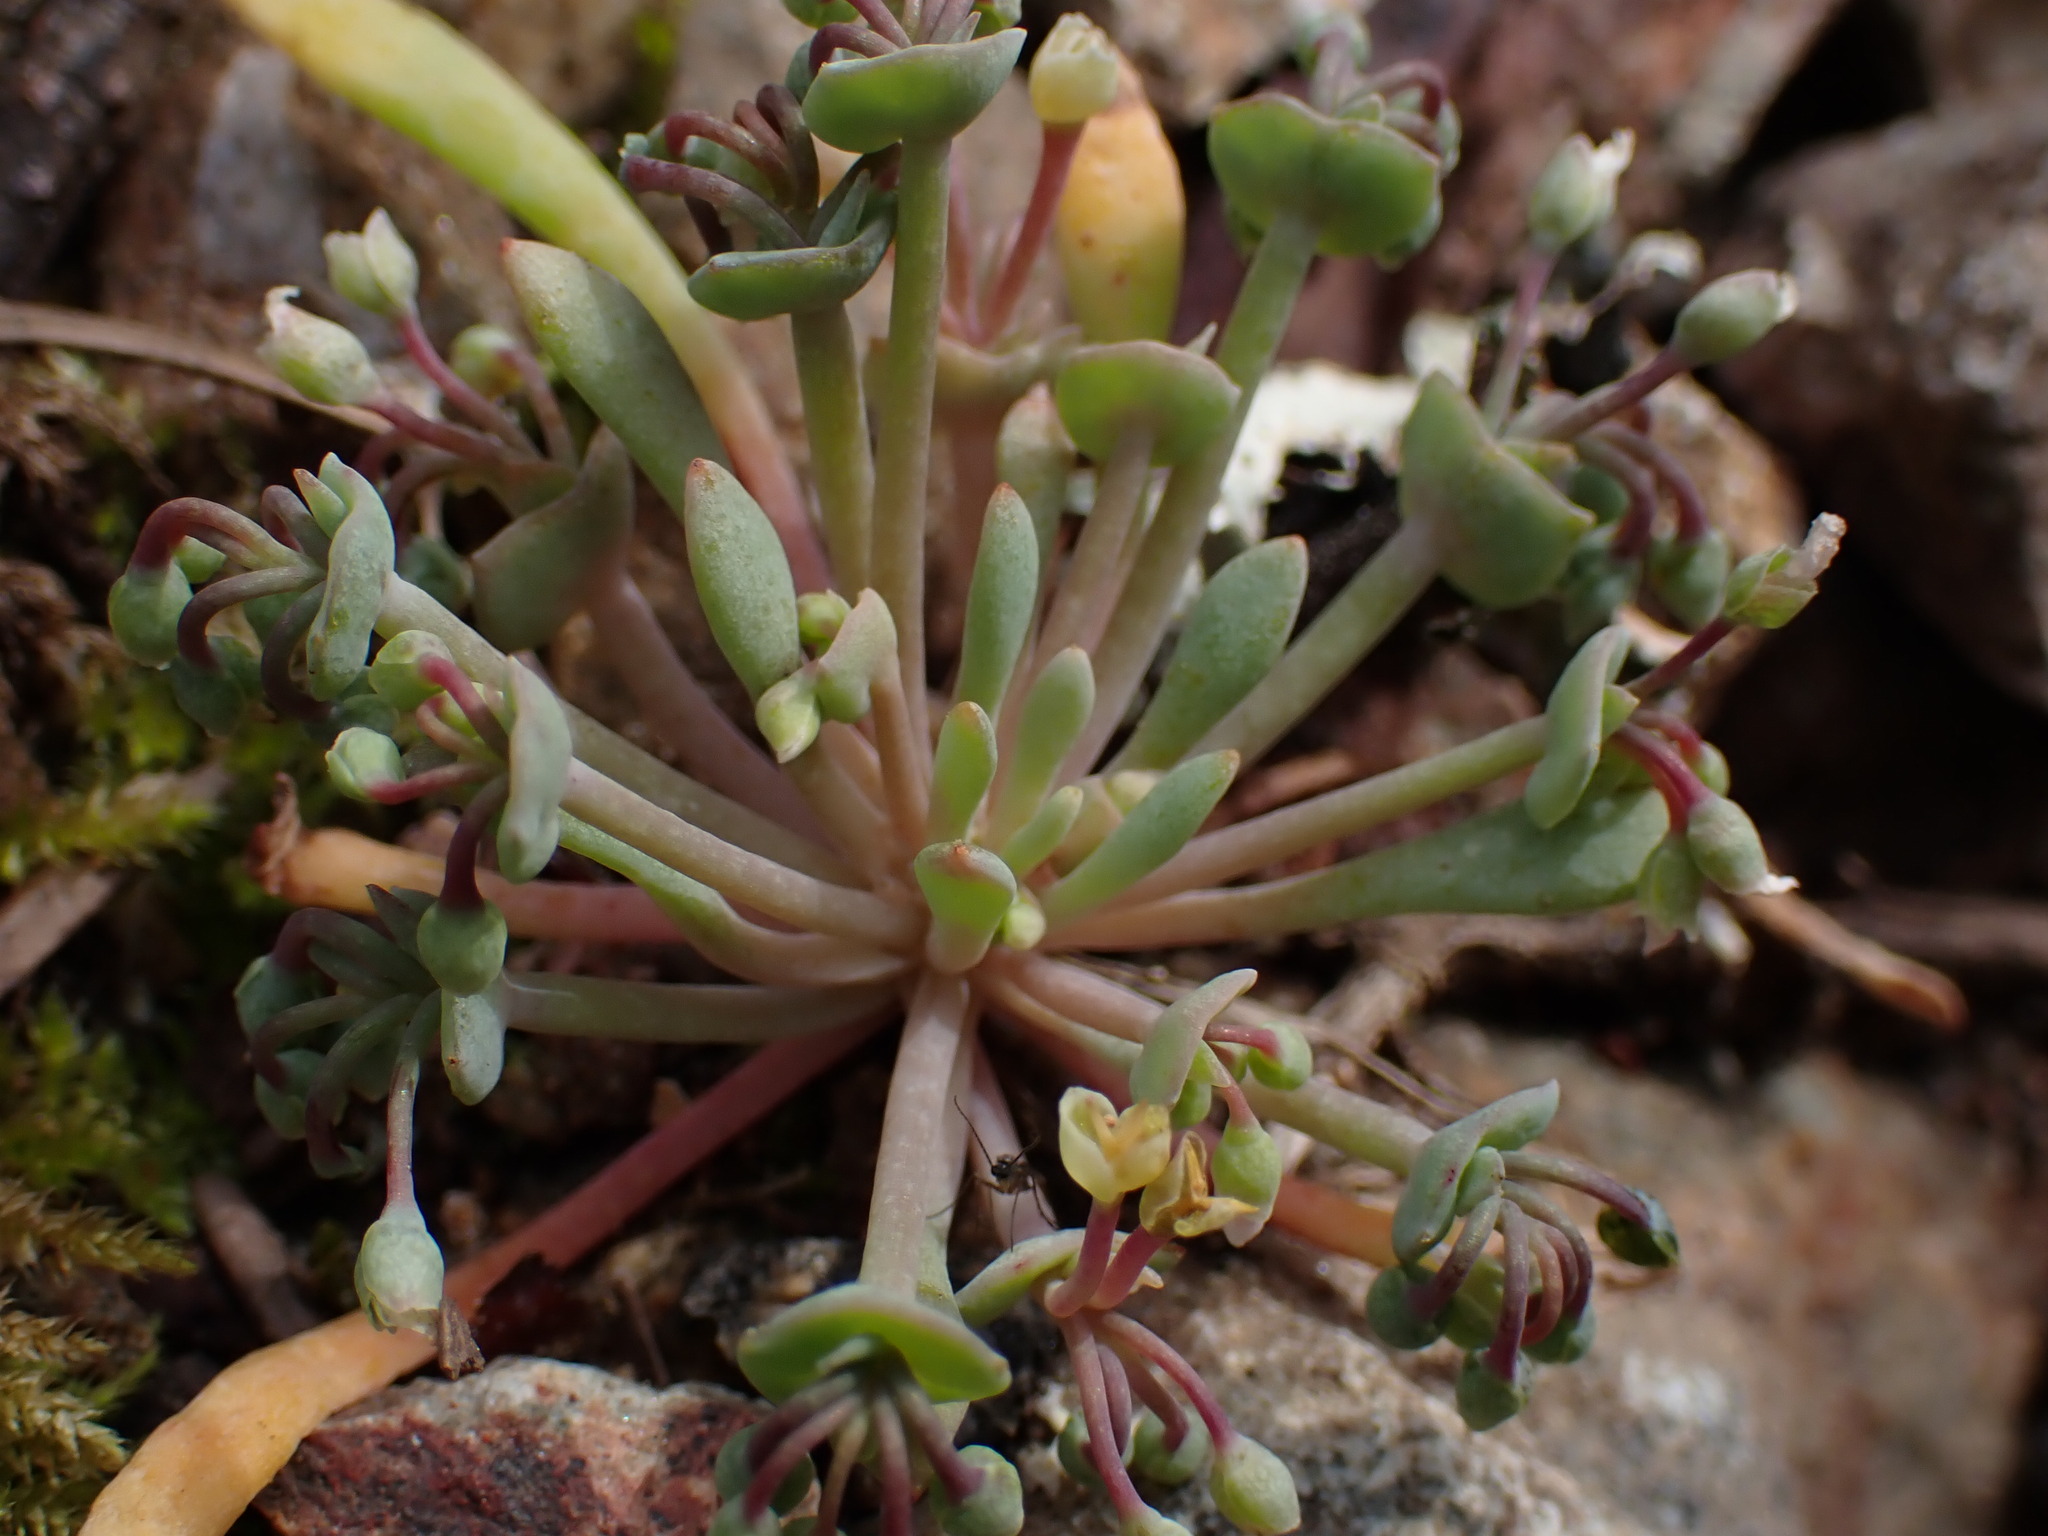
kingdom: Plantae
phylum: Tracheophyta
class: Magnoliopsida
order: Caryophyllales
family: Montiaceae
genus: Claytonia
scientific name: Claytonia exigua
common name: Pale spring beauty
